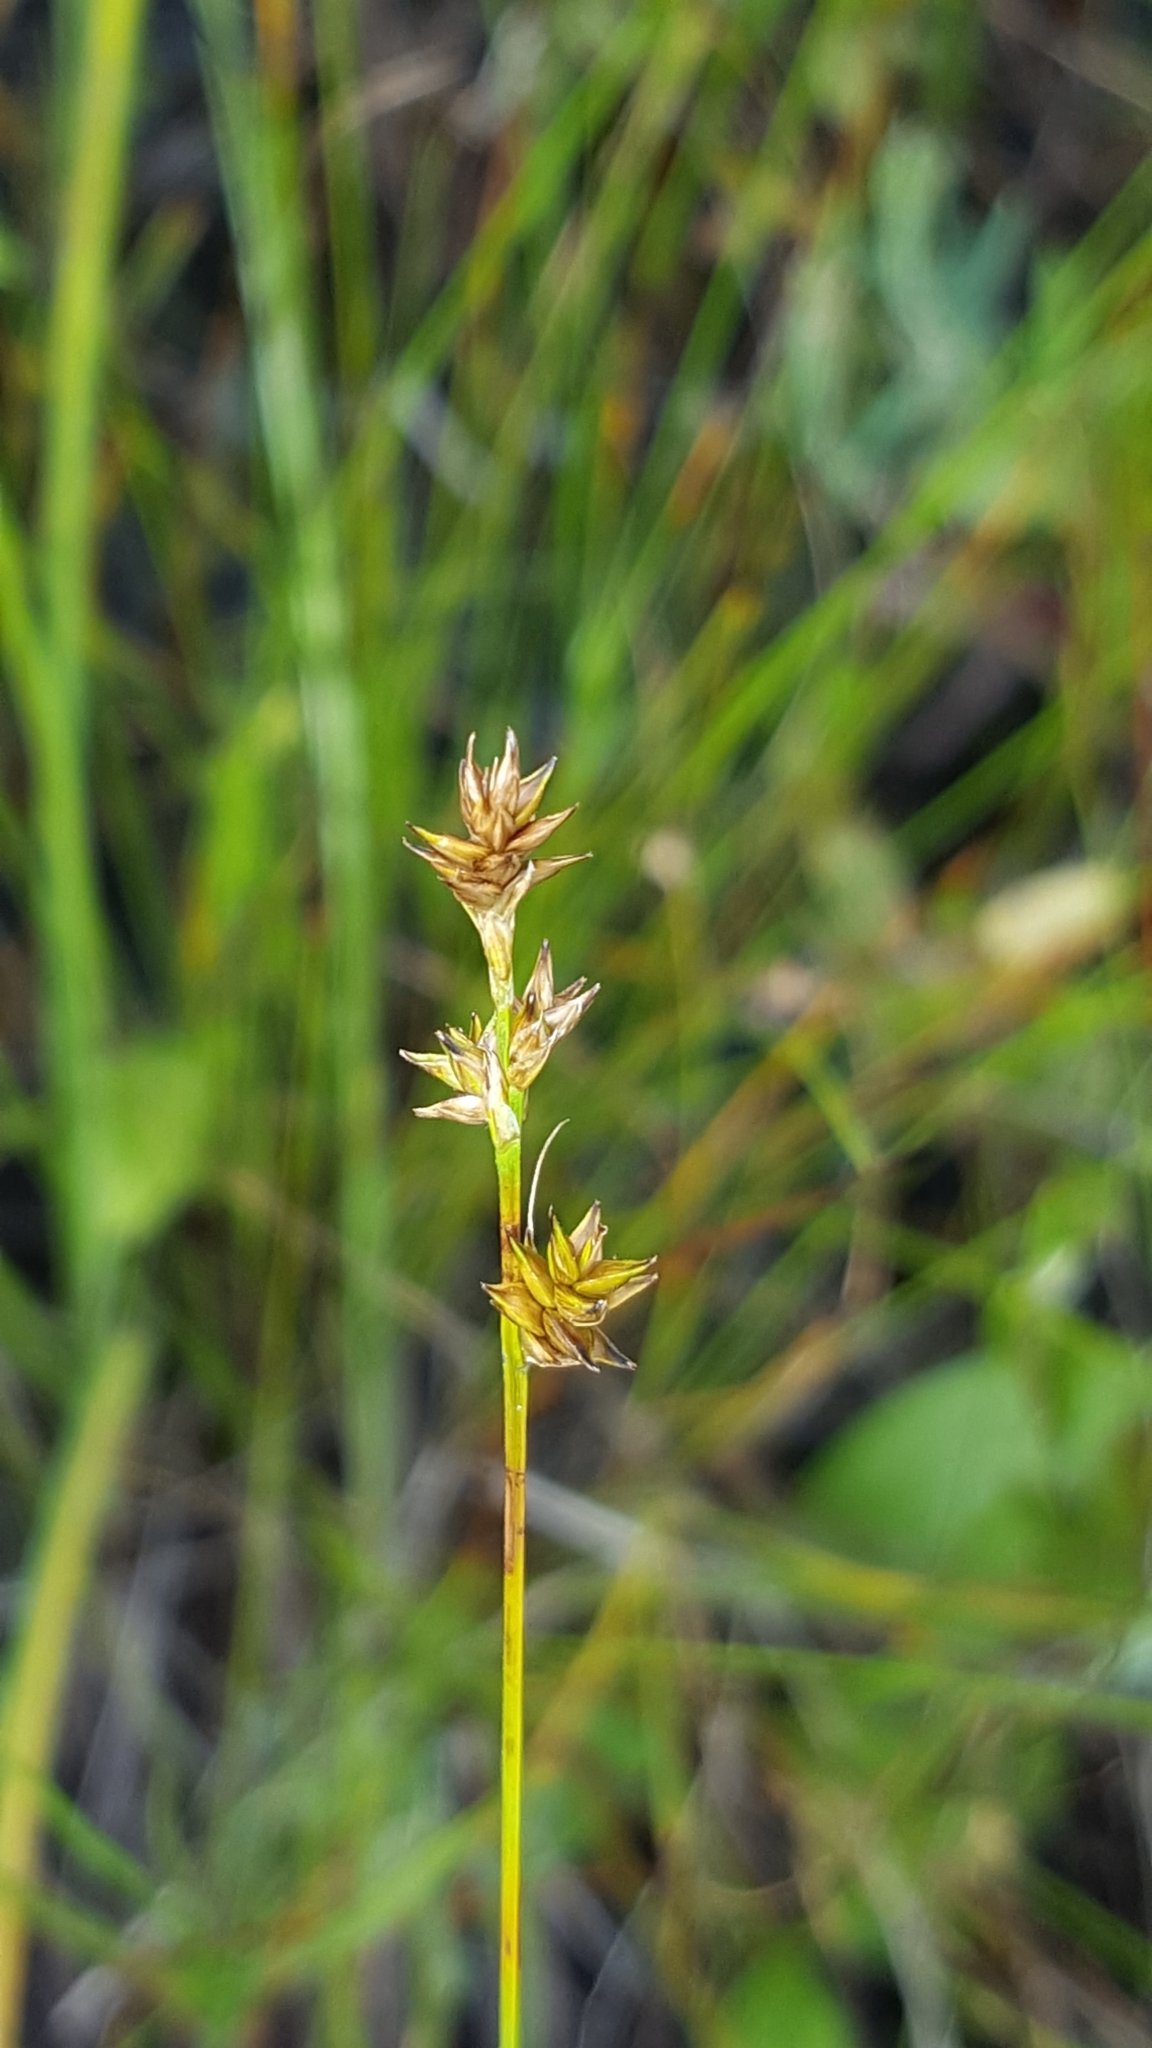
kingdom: Plantae
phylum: Tracheophyta
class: Liliopsida
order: Poales
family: Cyperaceae
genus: Carex
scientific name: Carex interior
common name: Inland sedge
